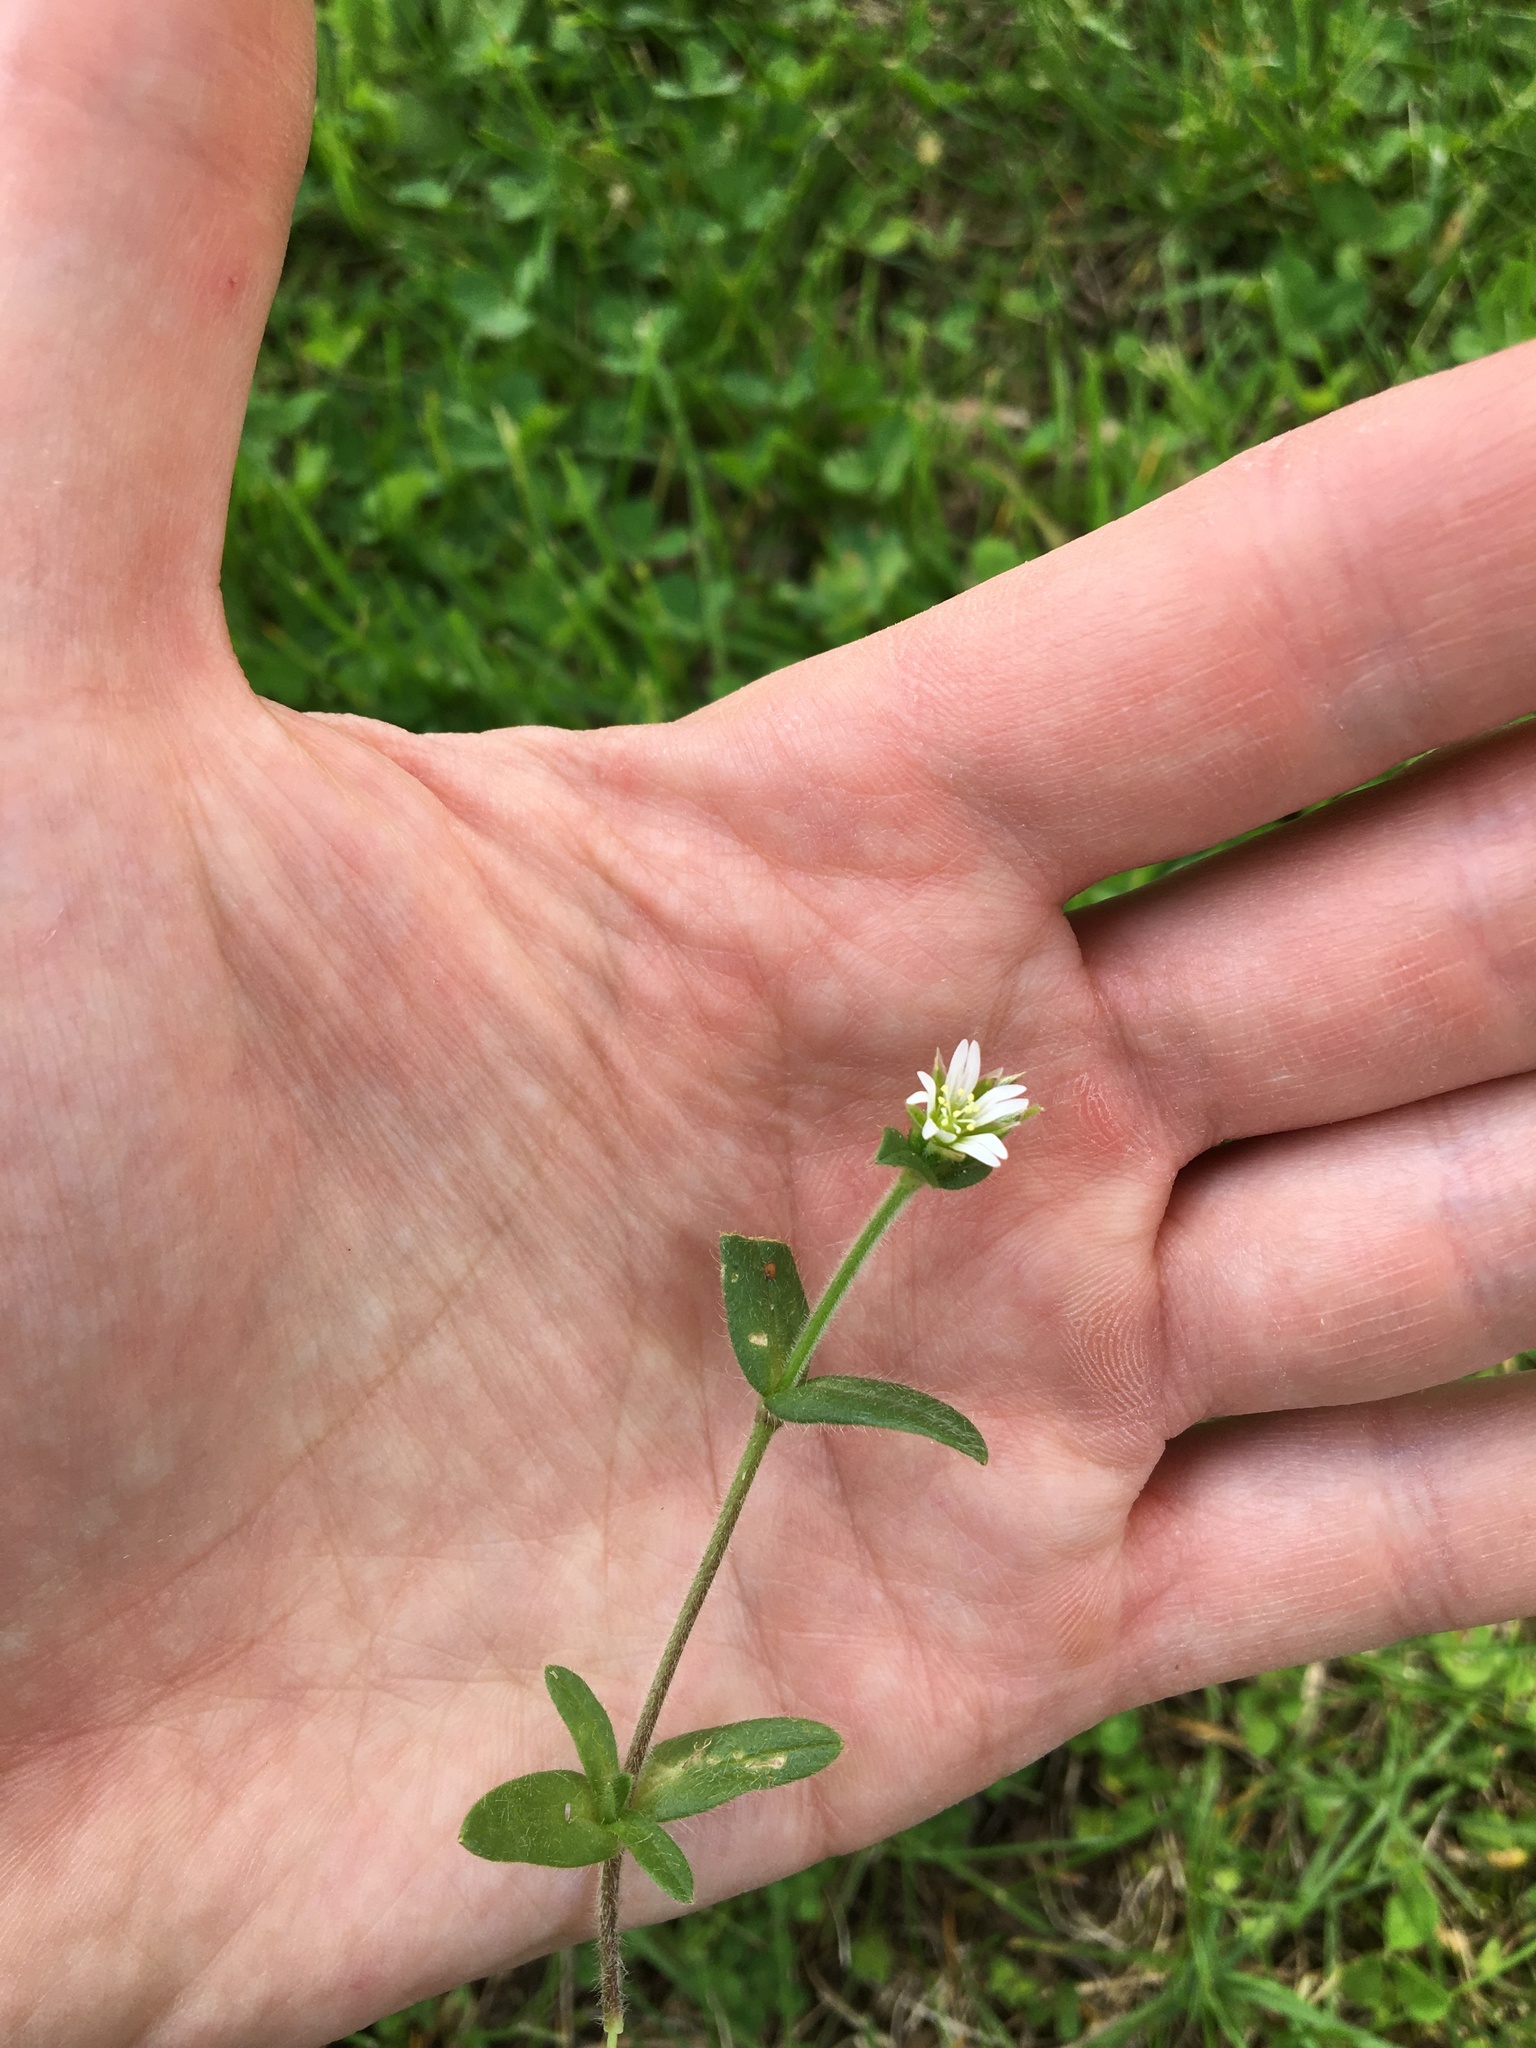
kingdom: Plantae
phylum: Tracheophyta
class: Magnoliopsida
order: Caryophyllales
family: Caryophyllaceae
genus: Cerastium
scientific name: Cerastium fontanum
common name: Common mouse-ear
